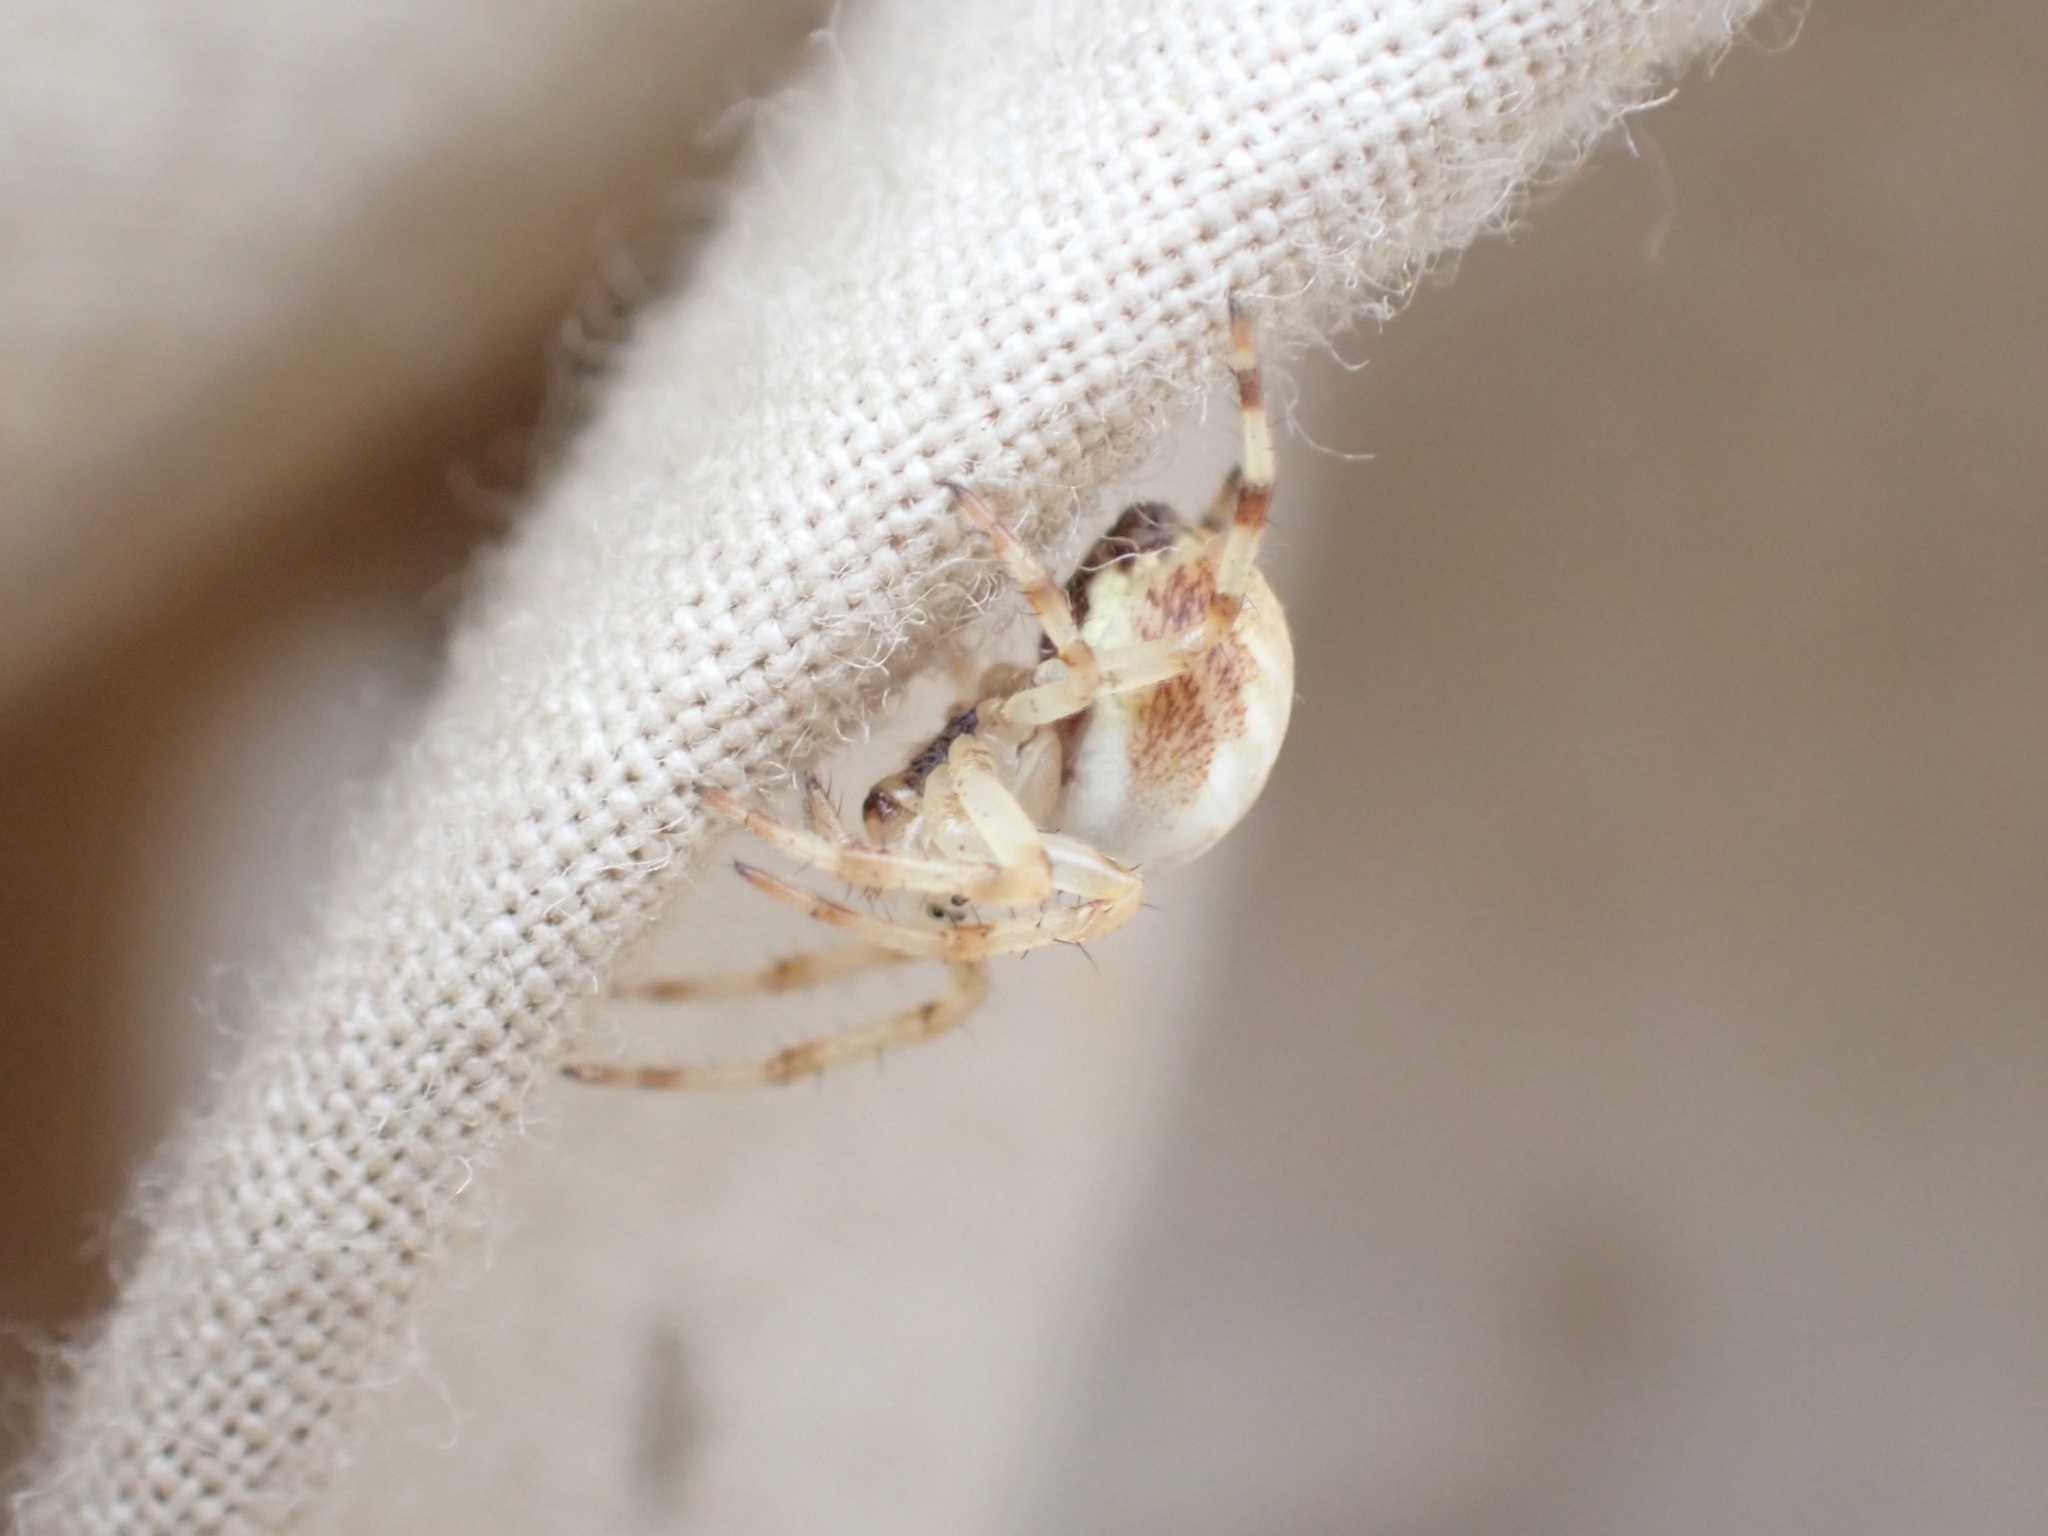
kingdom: Animalia
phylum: Arthropoda
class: Arachnida
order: Araneae
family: Araneidae
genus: Araneus
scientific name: Araneus trifolium
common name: Shamrock orbweaver
